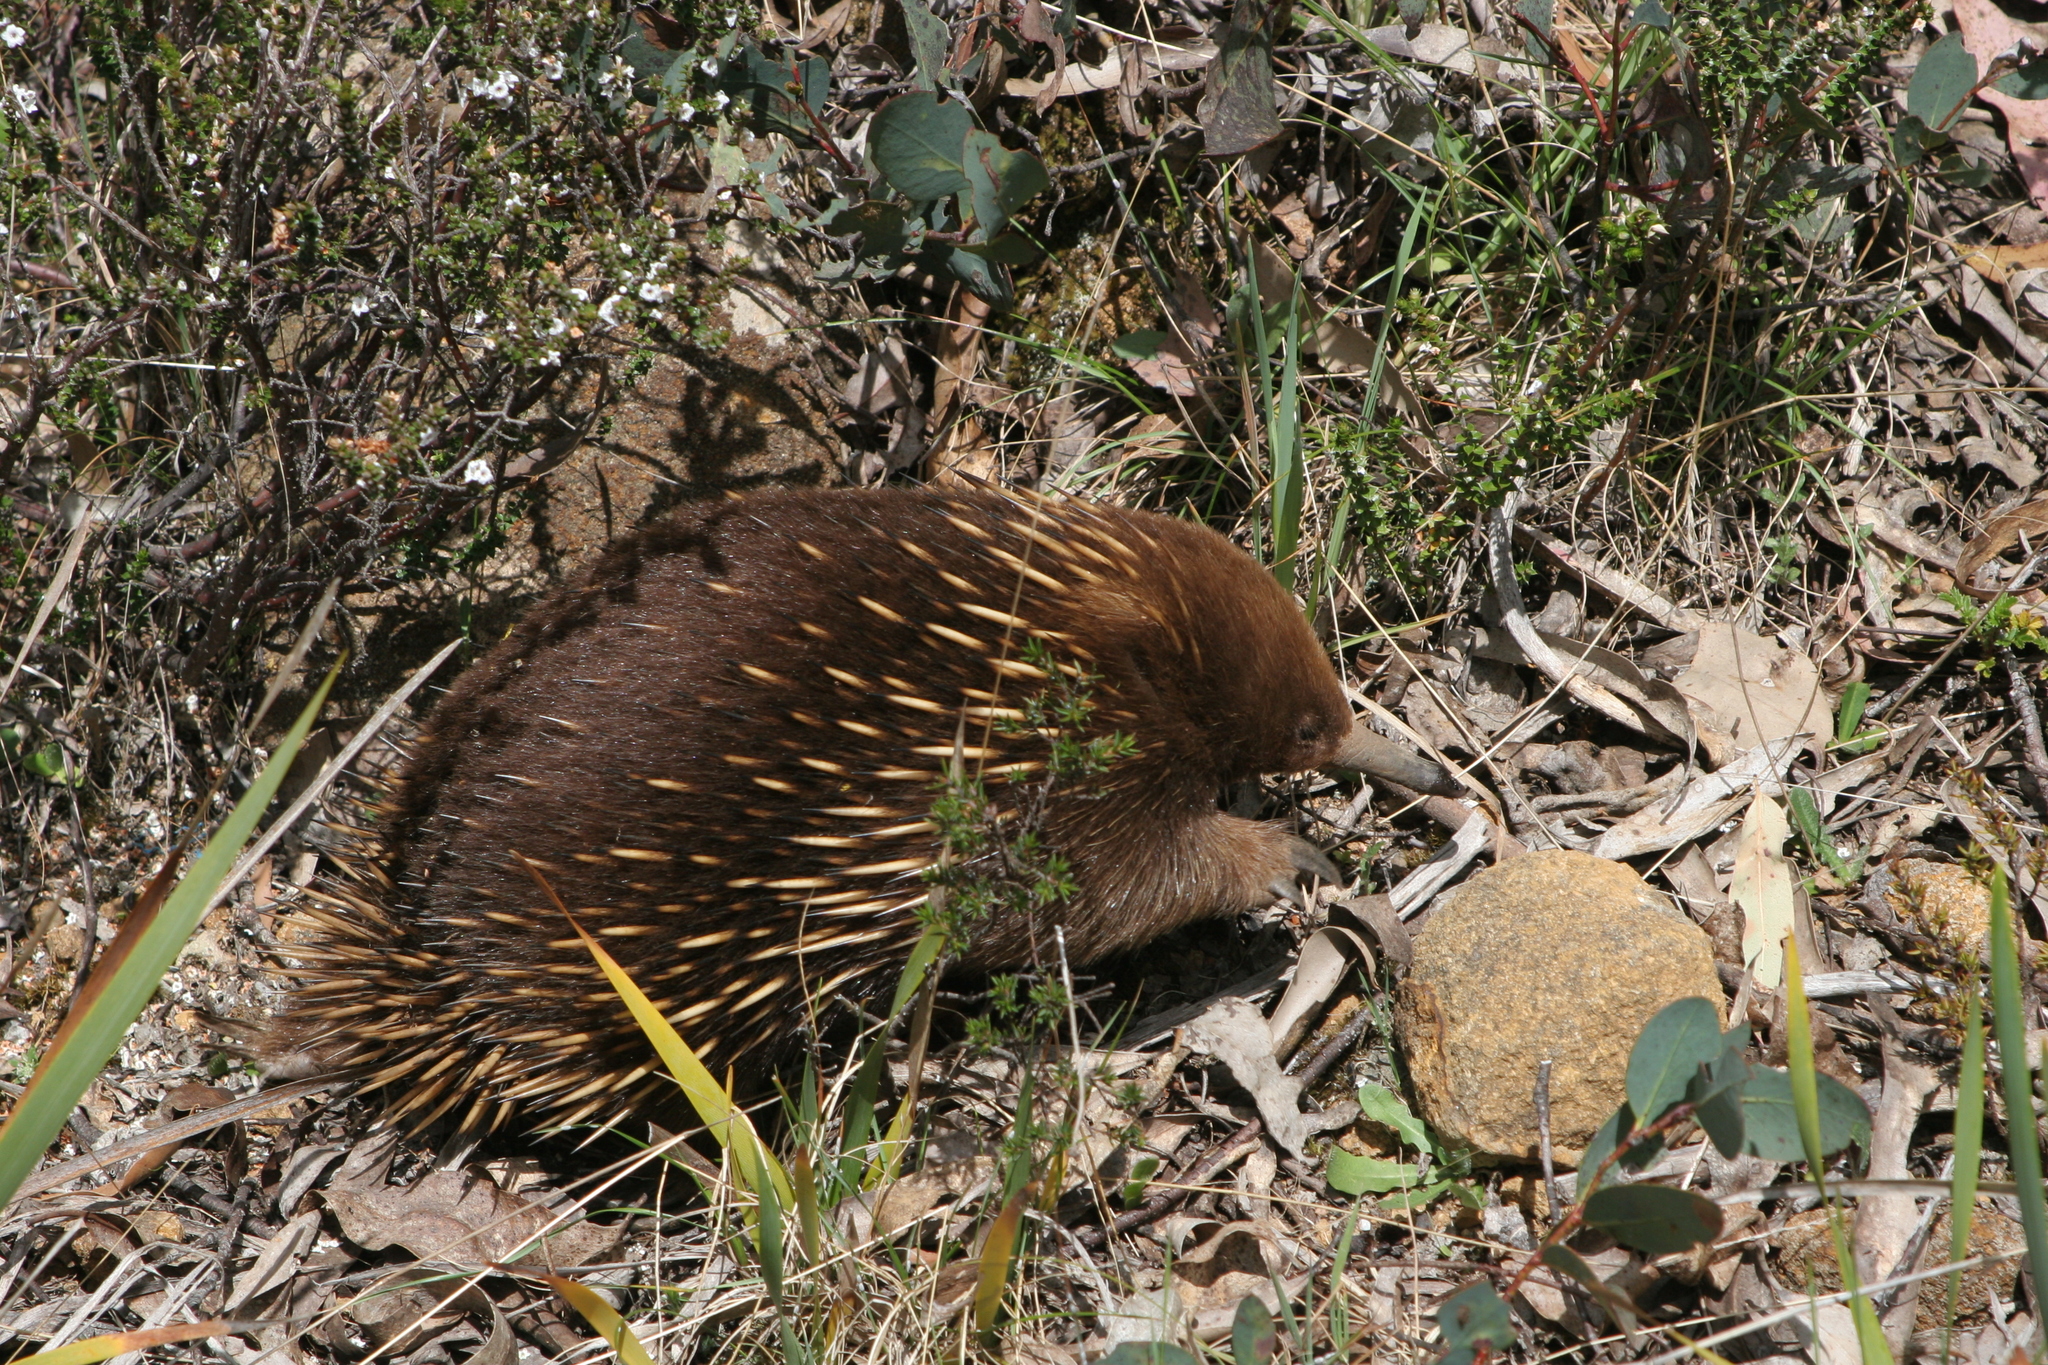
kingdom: Animalia
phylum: Chordata
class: Mammalia
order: Monotremata
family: Tachyglossidae
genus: Tachyglossus
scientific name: Tachyglossus aculeatus
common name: Short-beaked echidna
